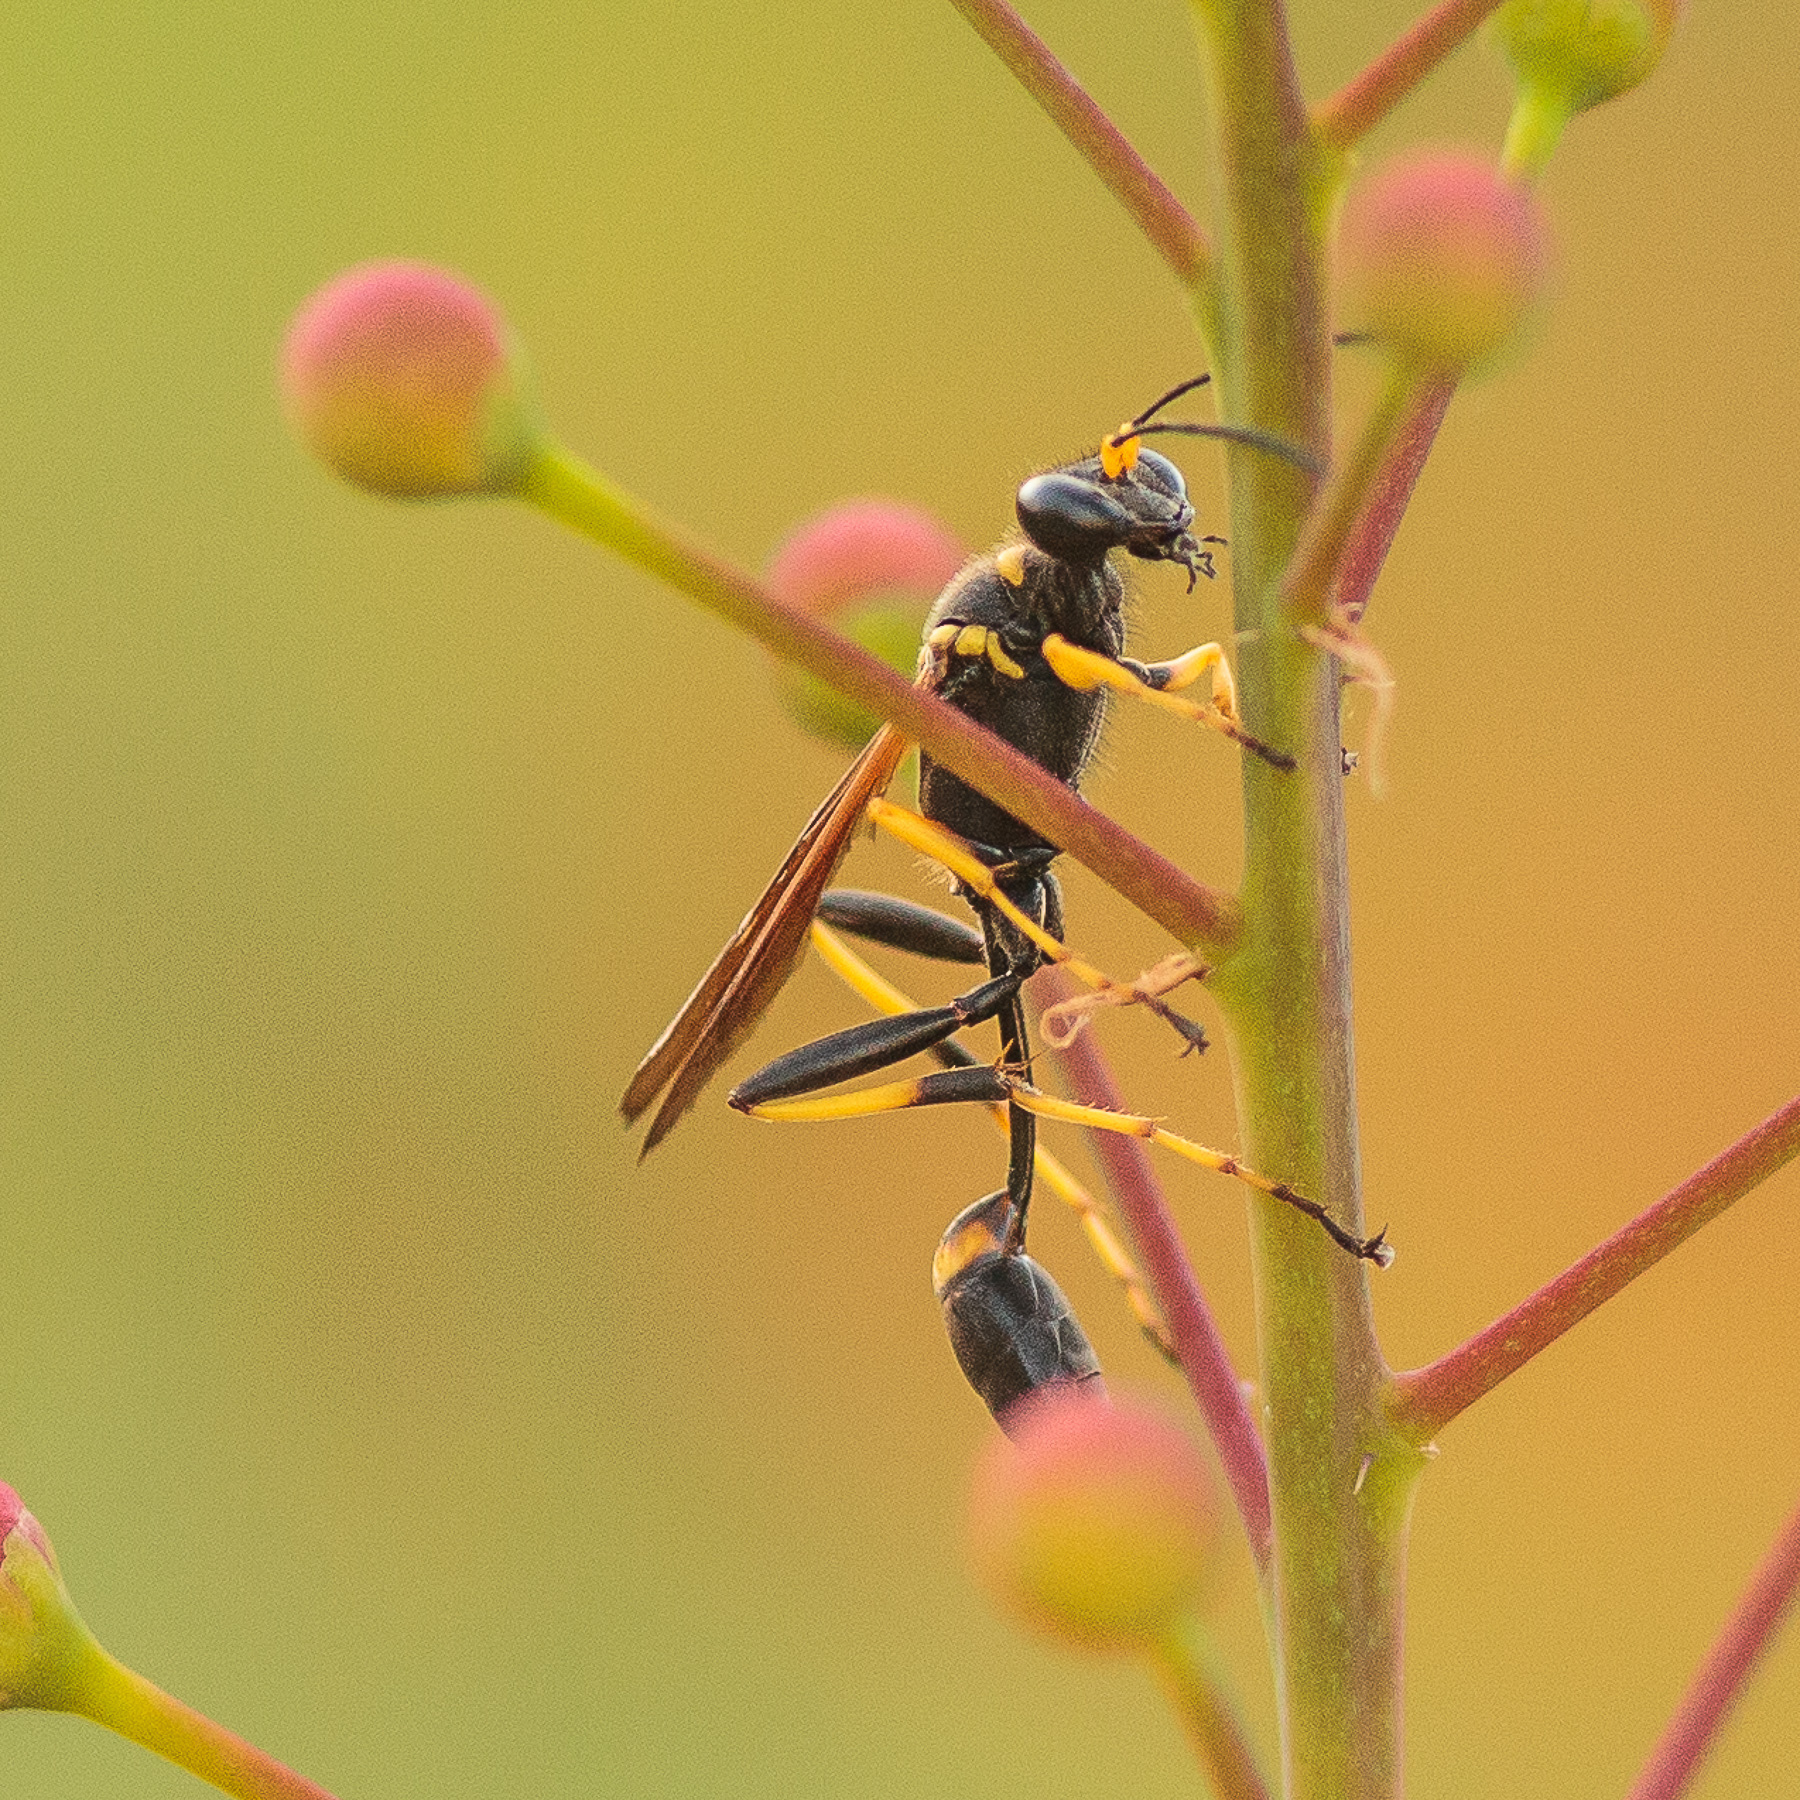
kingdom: Animalia
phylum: Arthropoda
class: Insecta
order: Hymenoptera
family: Sphecidae
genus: Sceliphron
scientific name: Sceliphron caementarium
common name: Mud dauber
